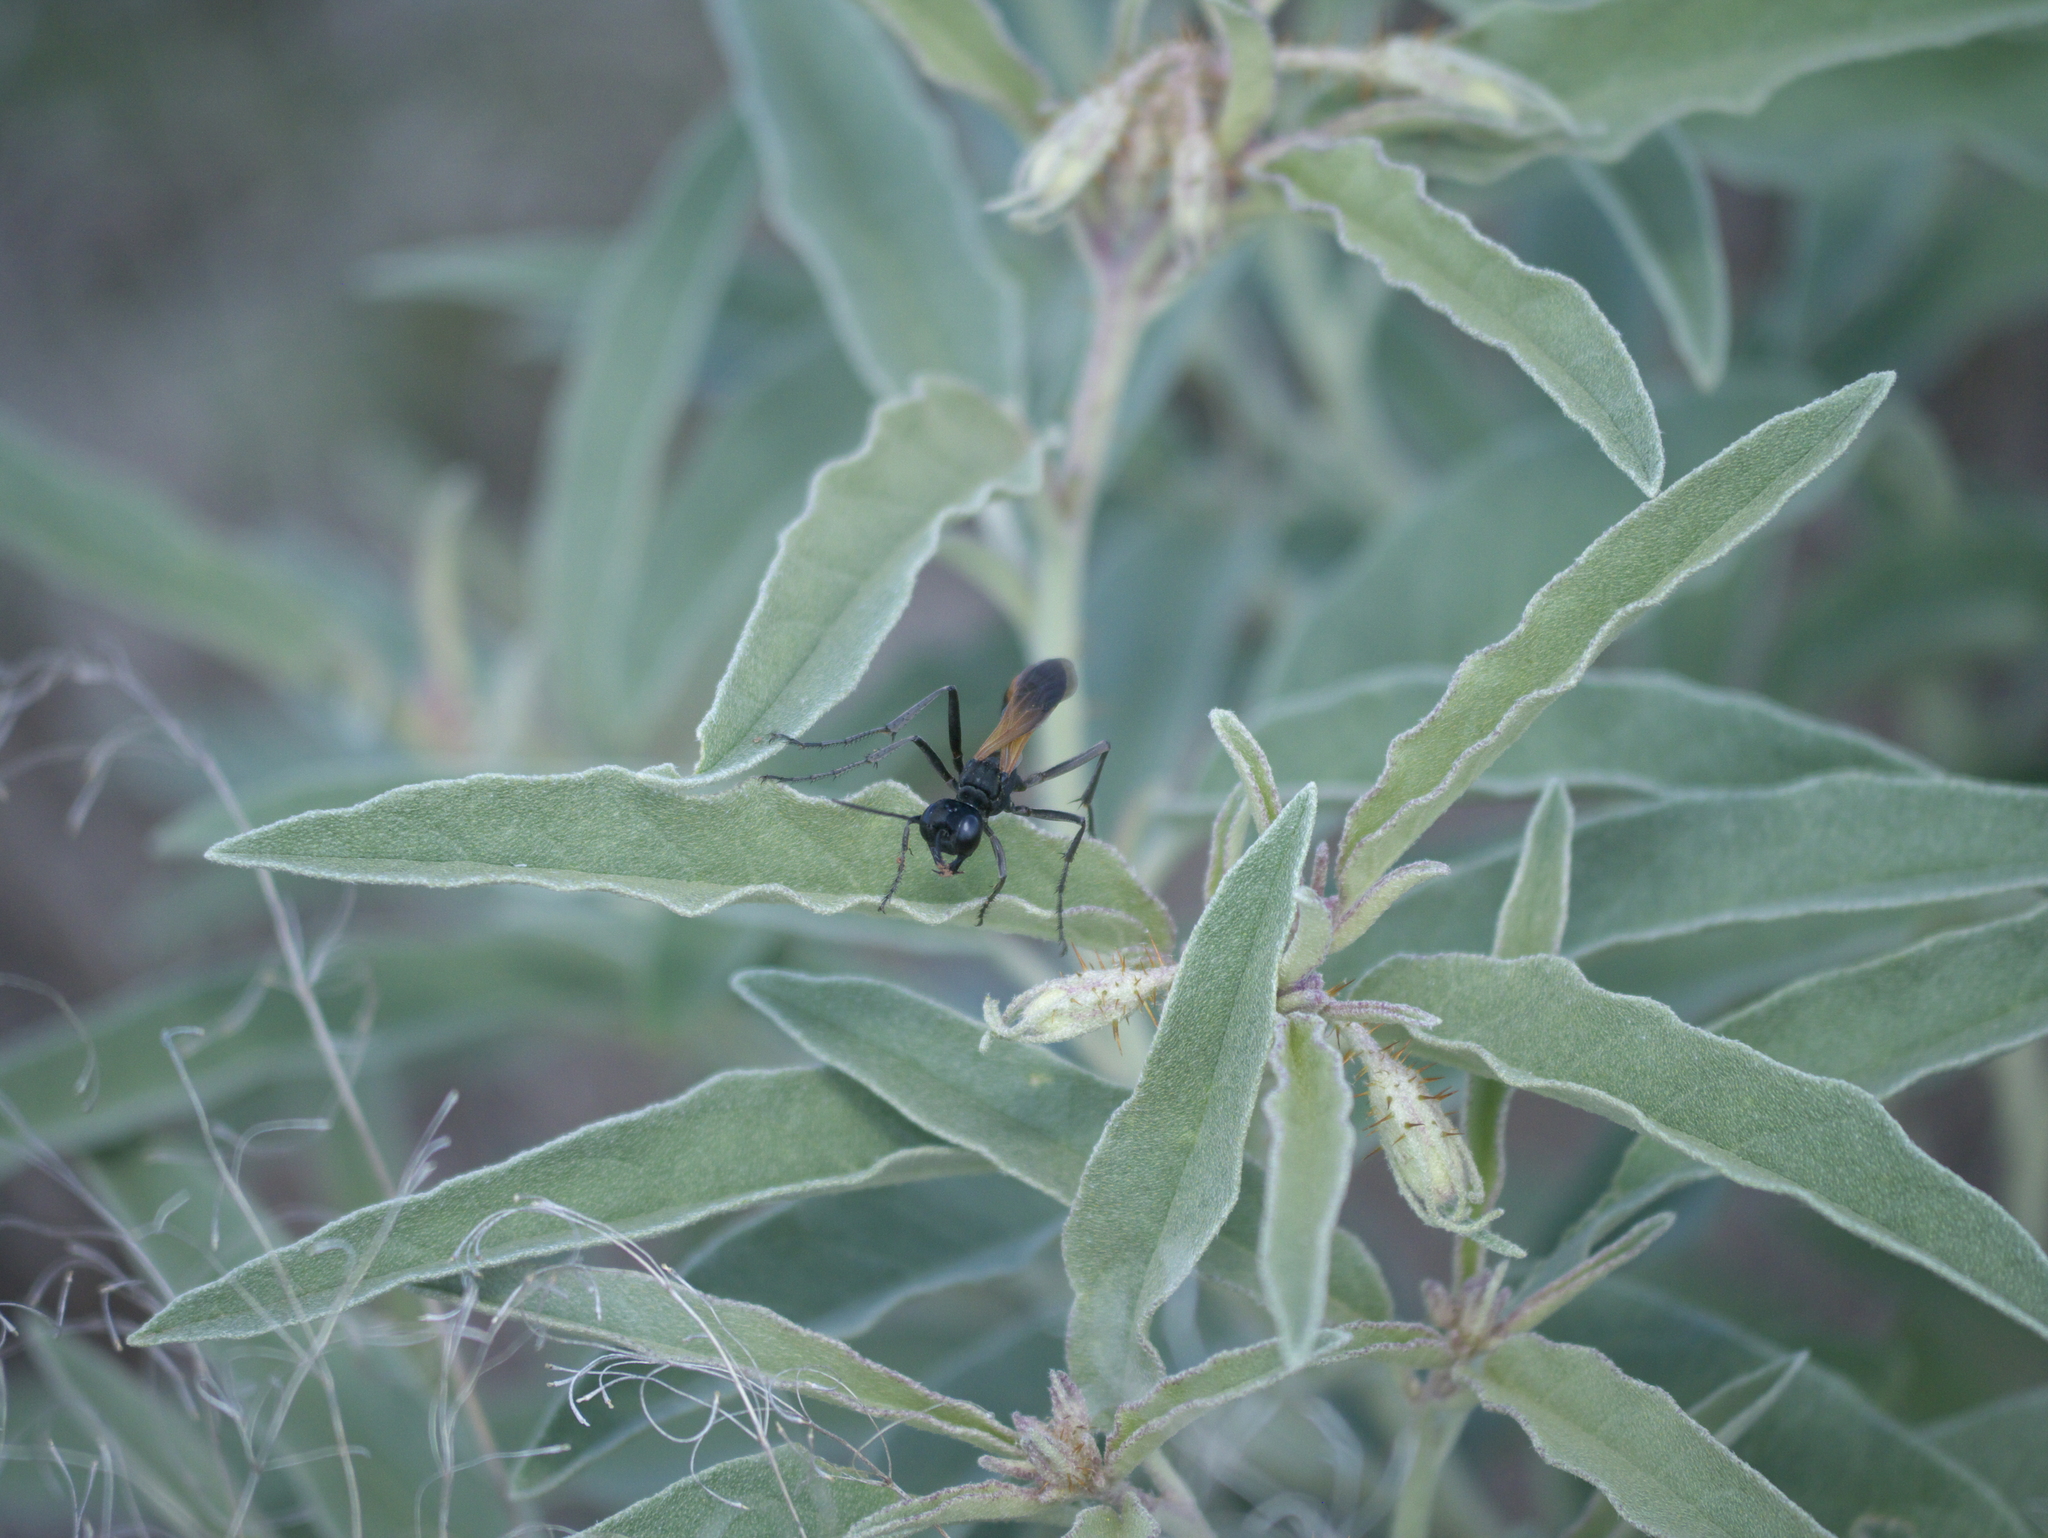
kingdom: Plantae
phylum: Tracheophyta
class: Magnoliopsida
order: Solanales
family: Solanaceae
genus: Solanum
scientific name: Solanum elaeagnifolium
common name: Silverleaf nightshade
